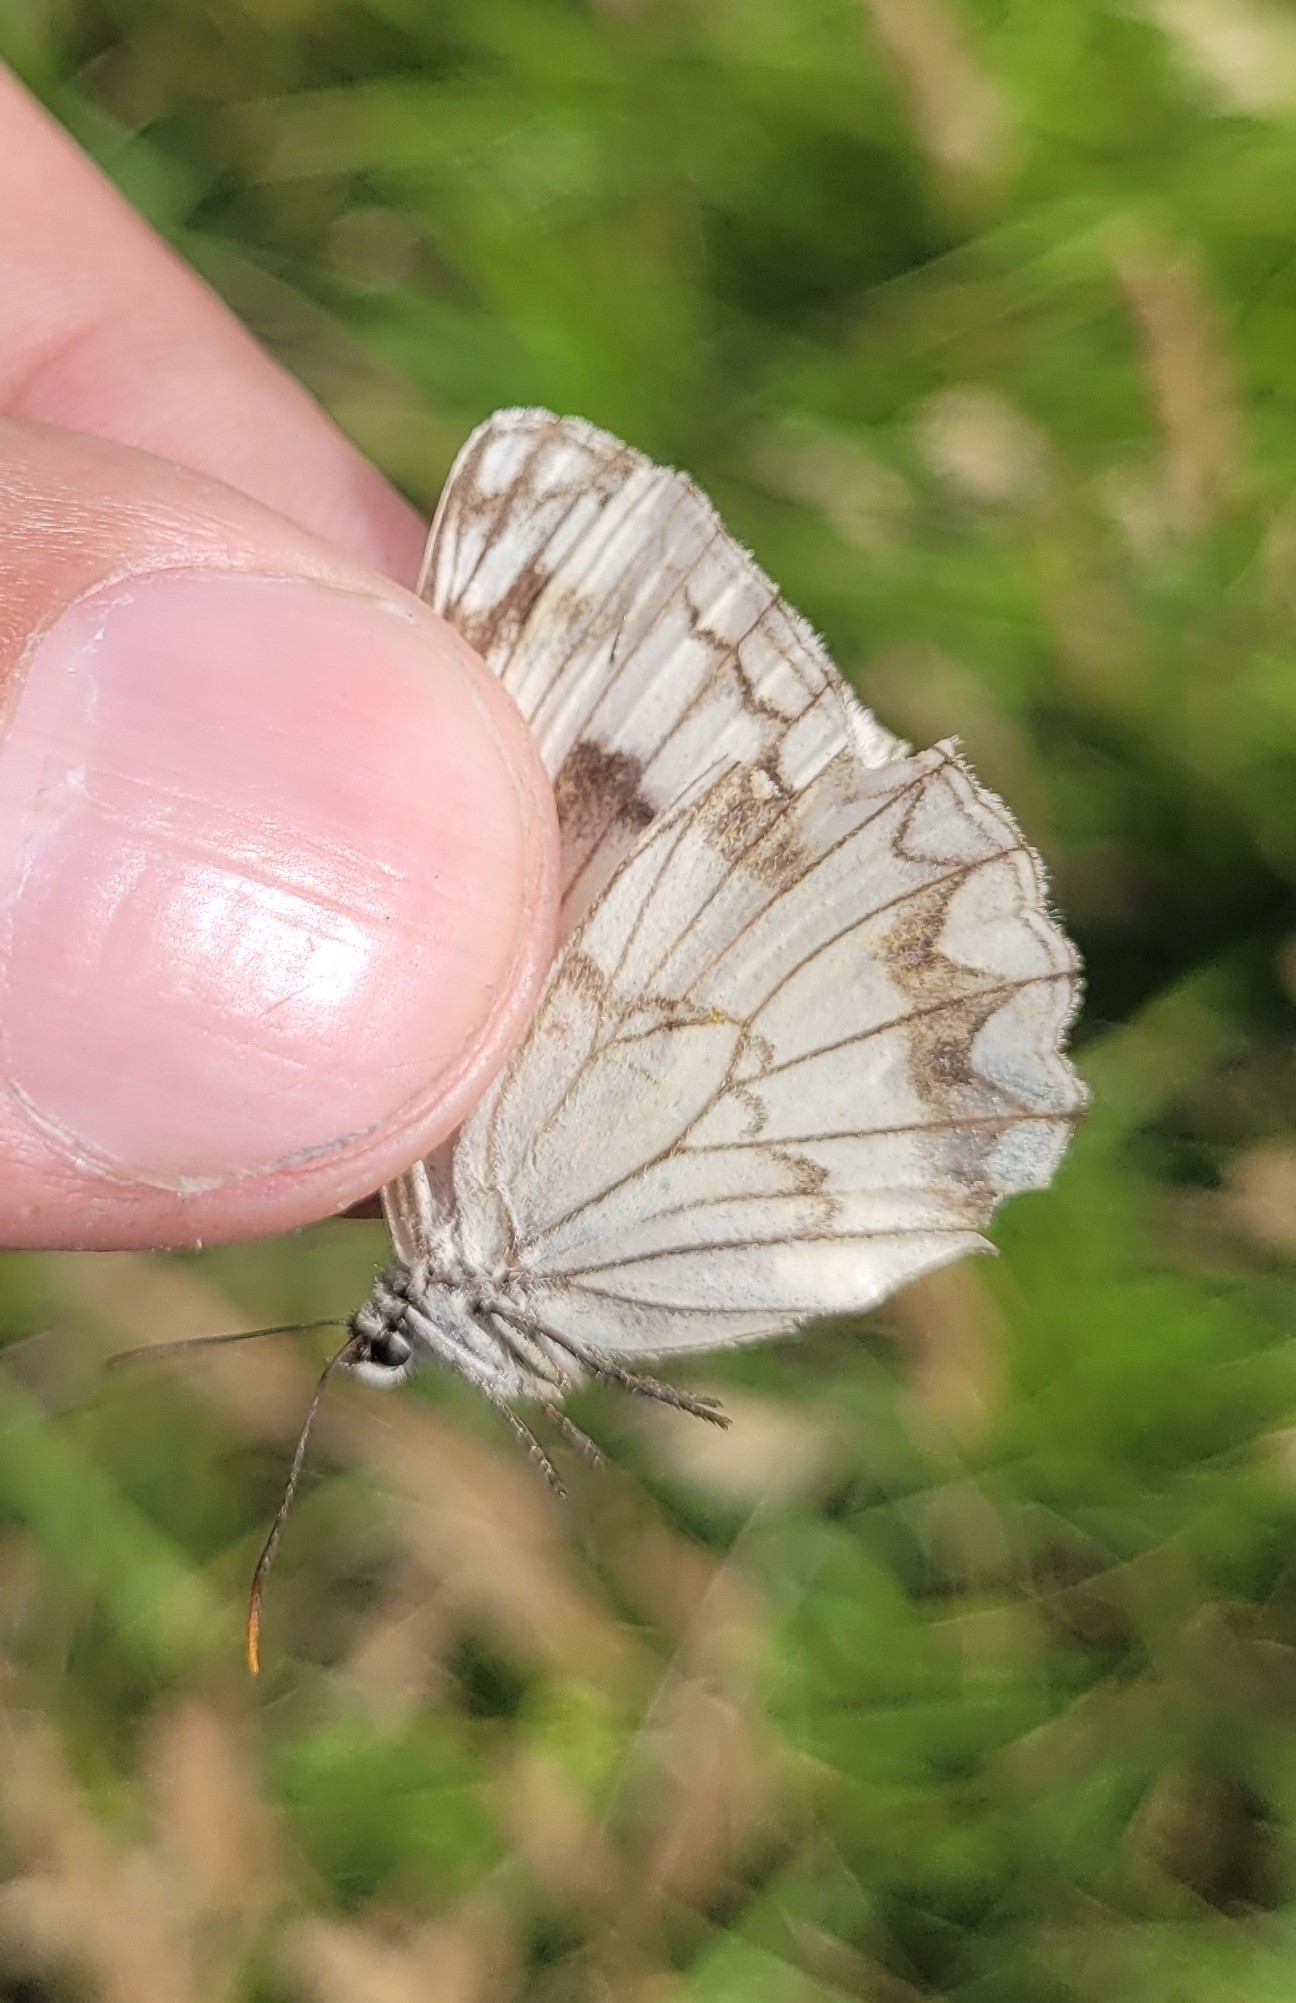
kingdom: Animalia
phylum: Arthropoda
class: Insecta
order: Lepidoptera
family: Nymphalidae
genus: Melanargia
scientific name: Melanargia halimede
